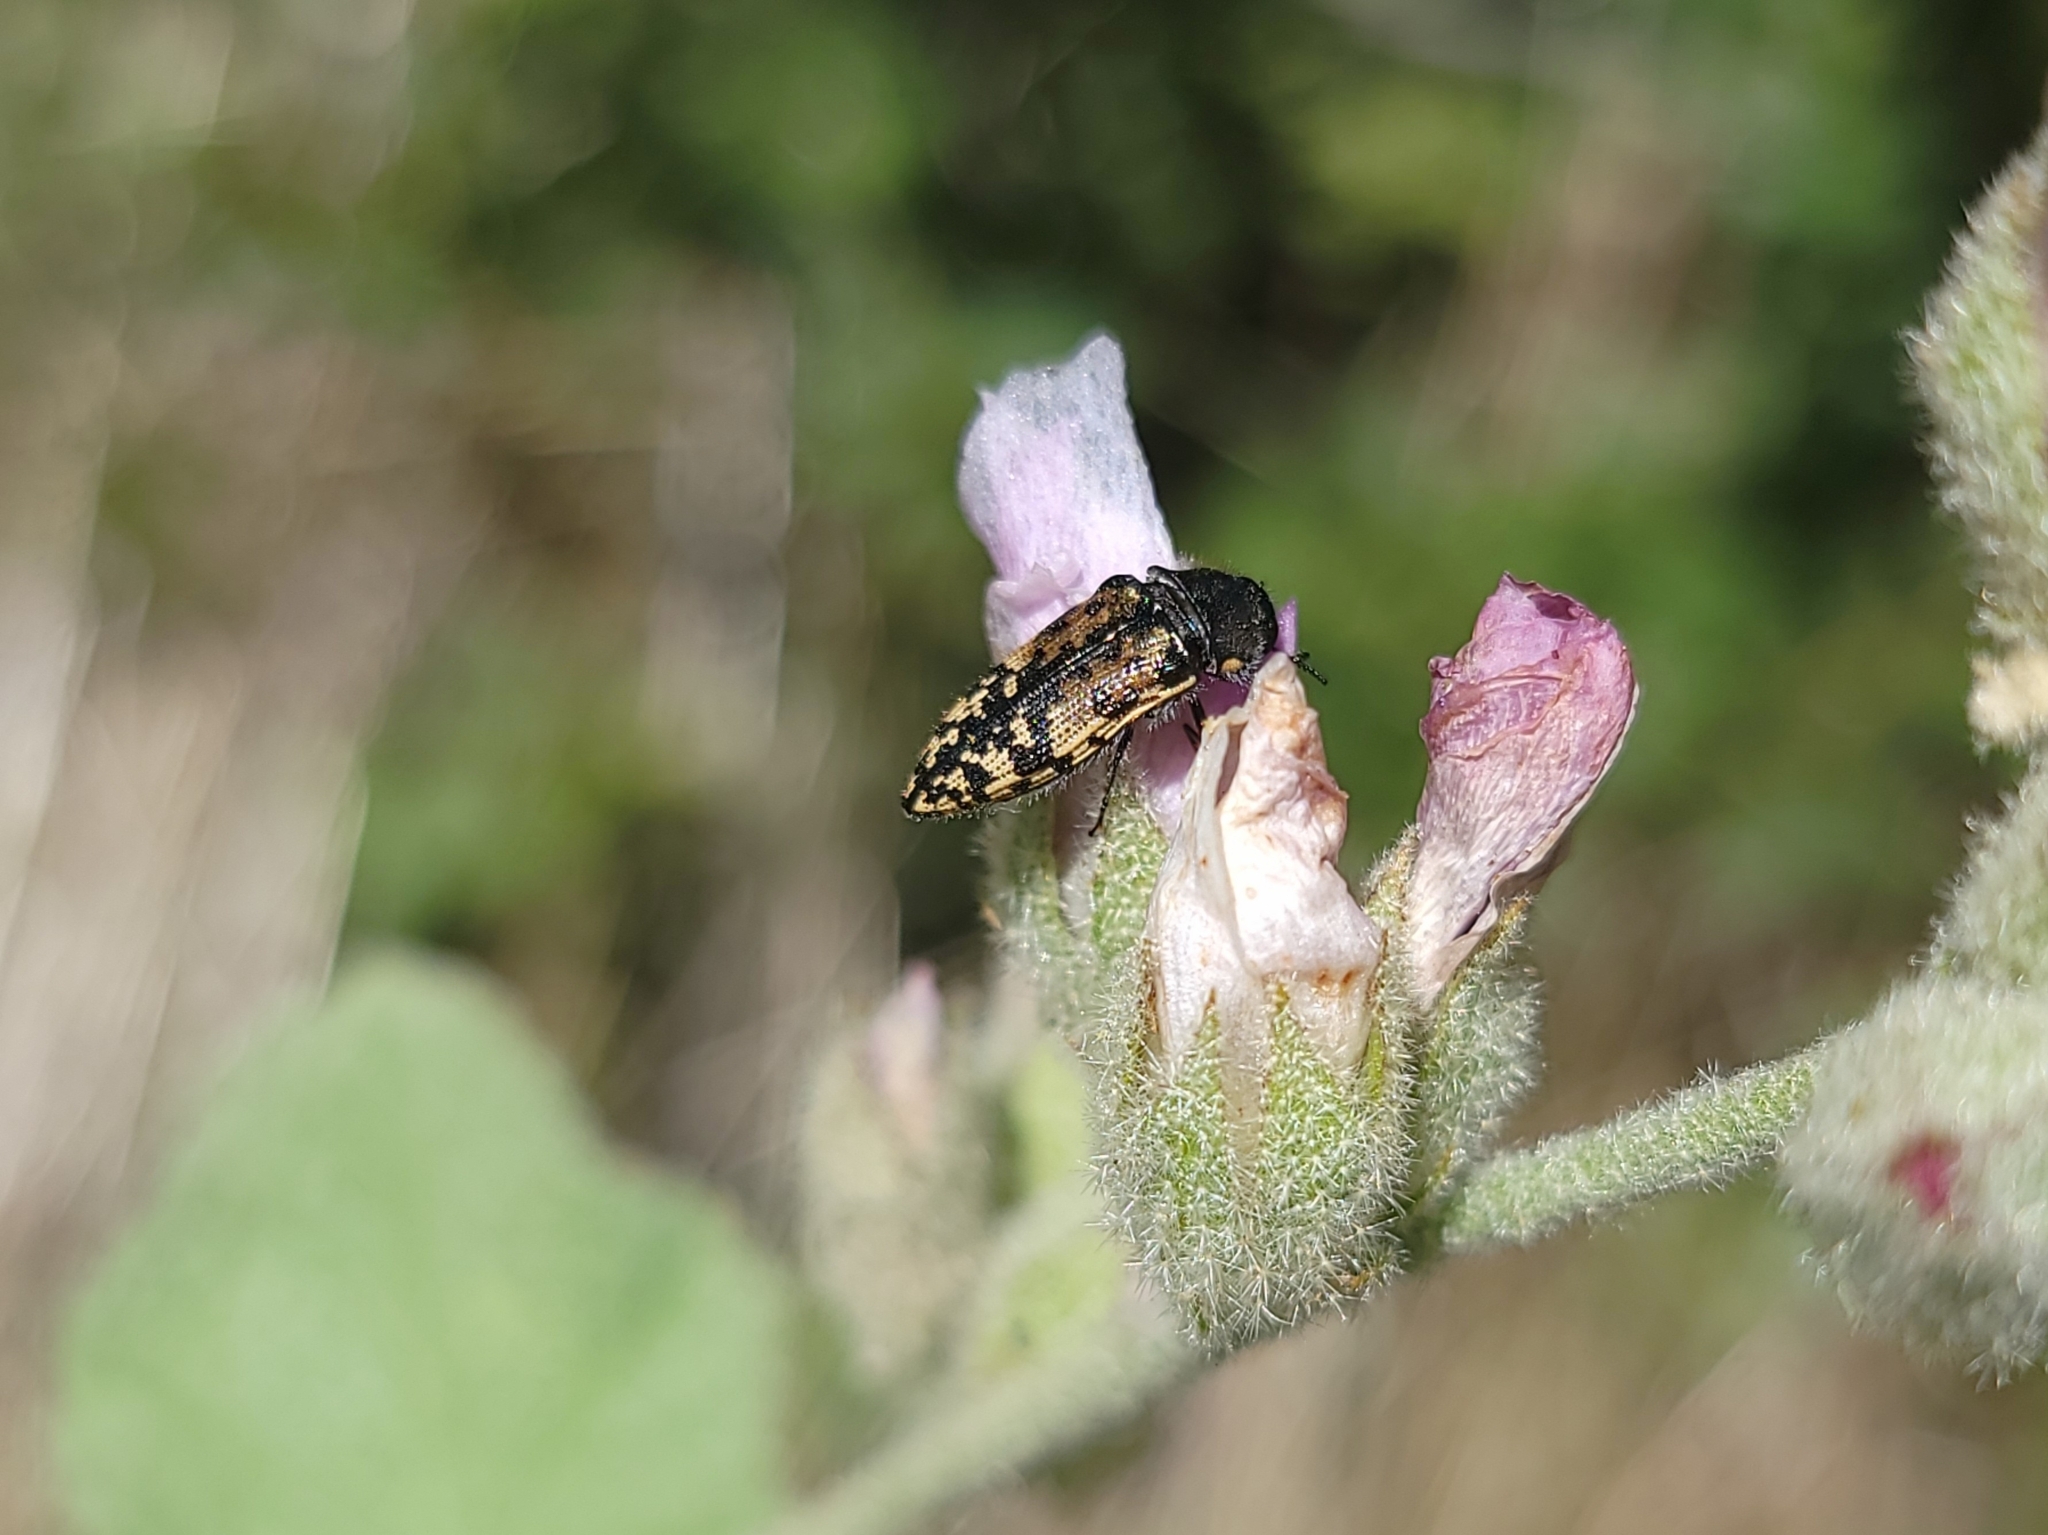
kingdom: Animalia
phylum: Arthropoda
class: Insecta
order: Coleoptera
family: Buprestidae
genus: Acmaeodera
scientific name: Acmaeodera hepburnii
